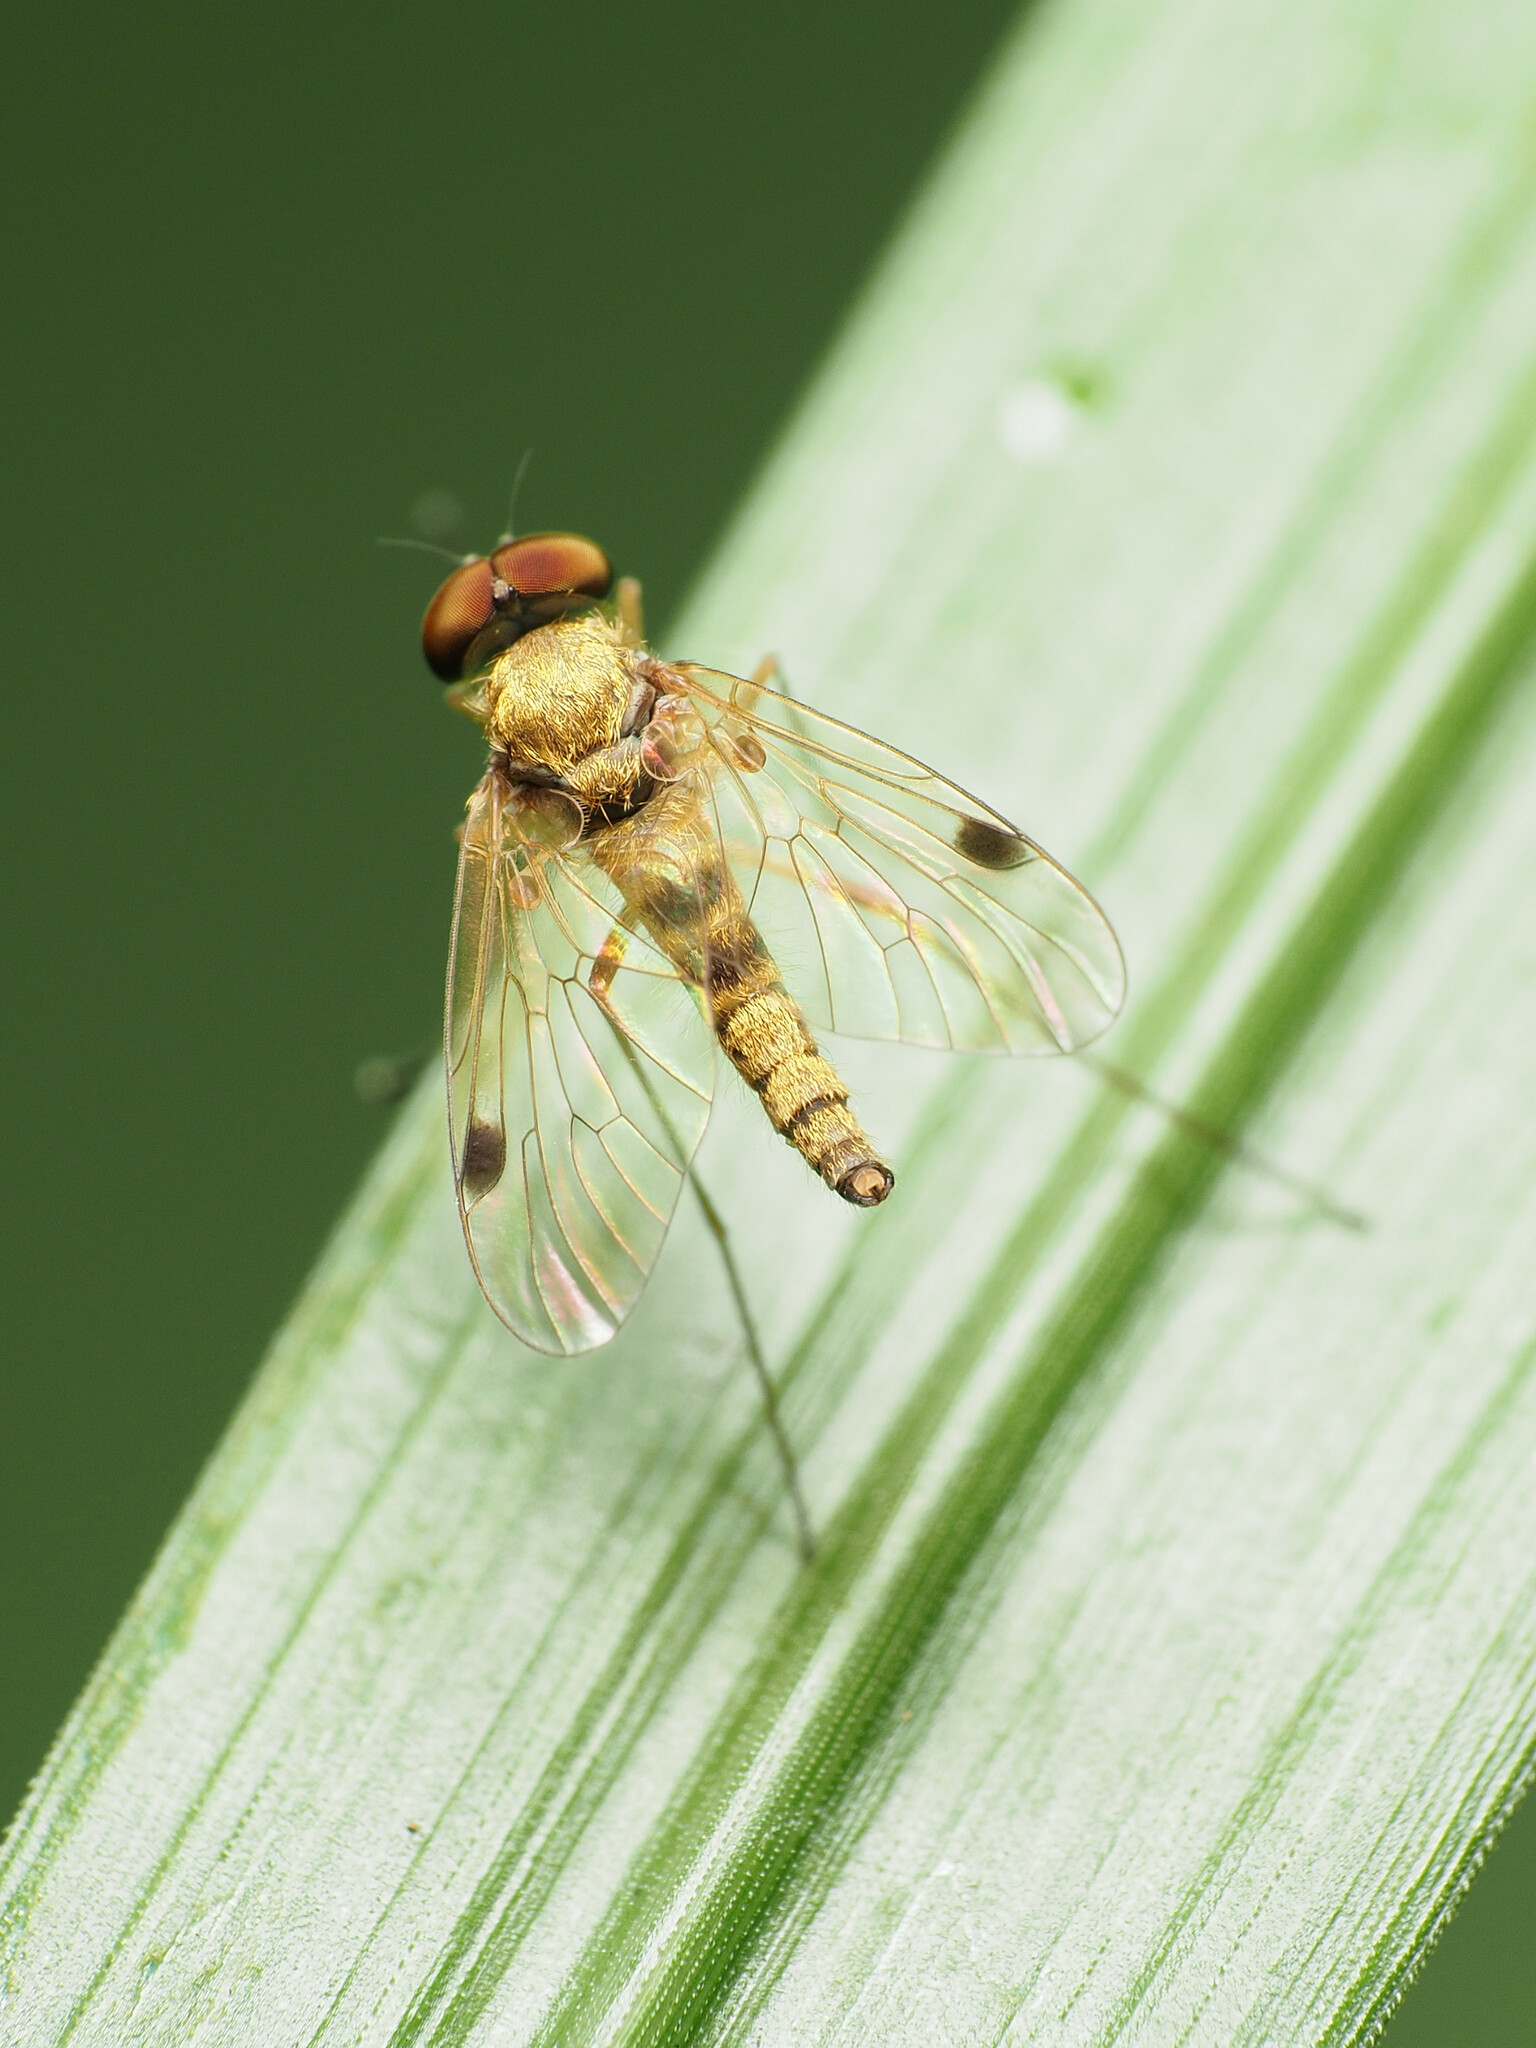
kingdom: Animalia
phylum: Arthropoda
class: Insecta
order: Diptera
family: Rhagionidae
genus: Chrysopilus
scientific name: Chrysopilus modestus
